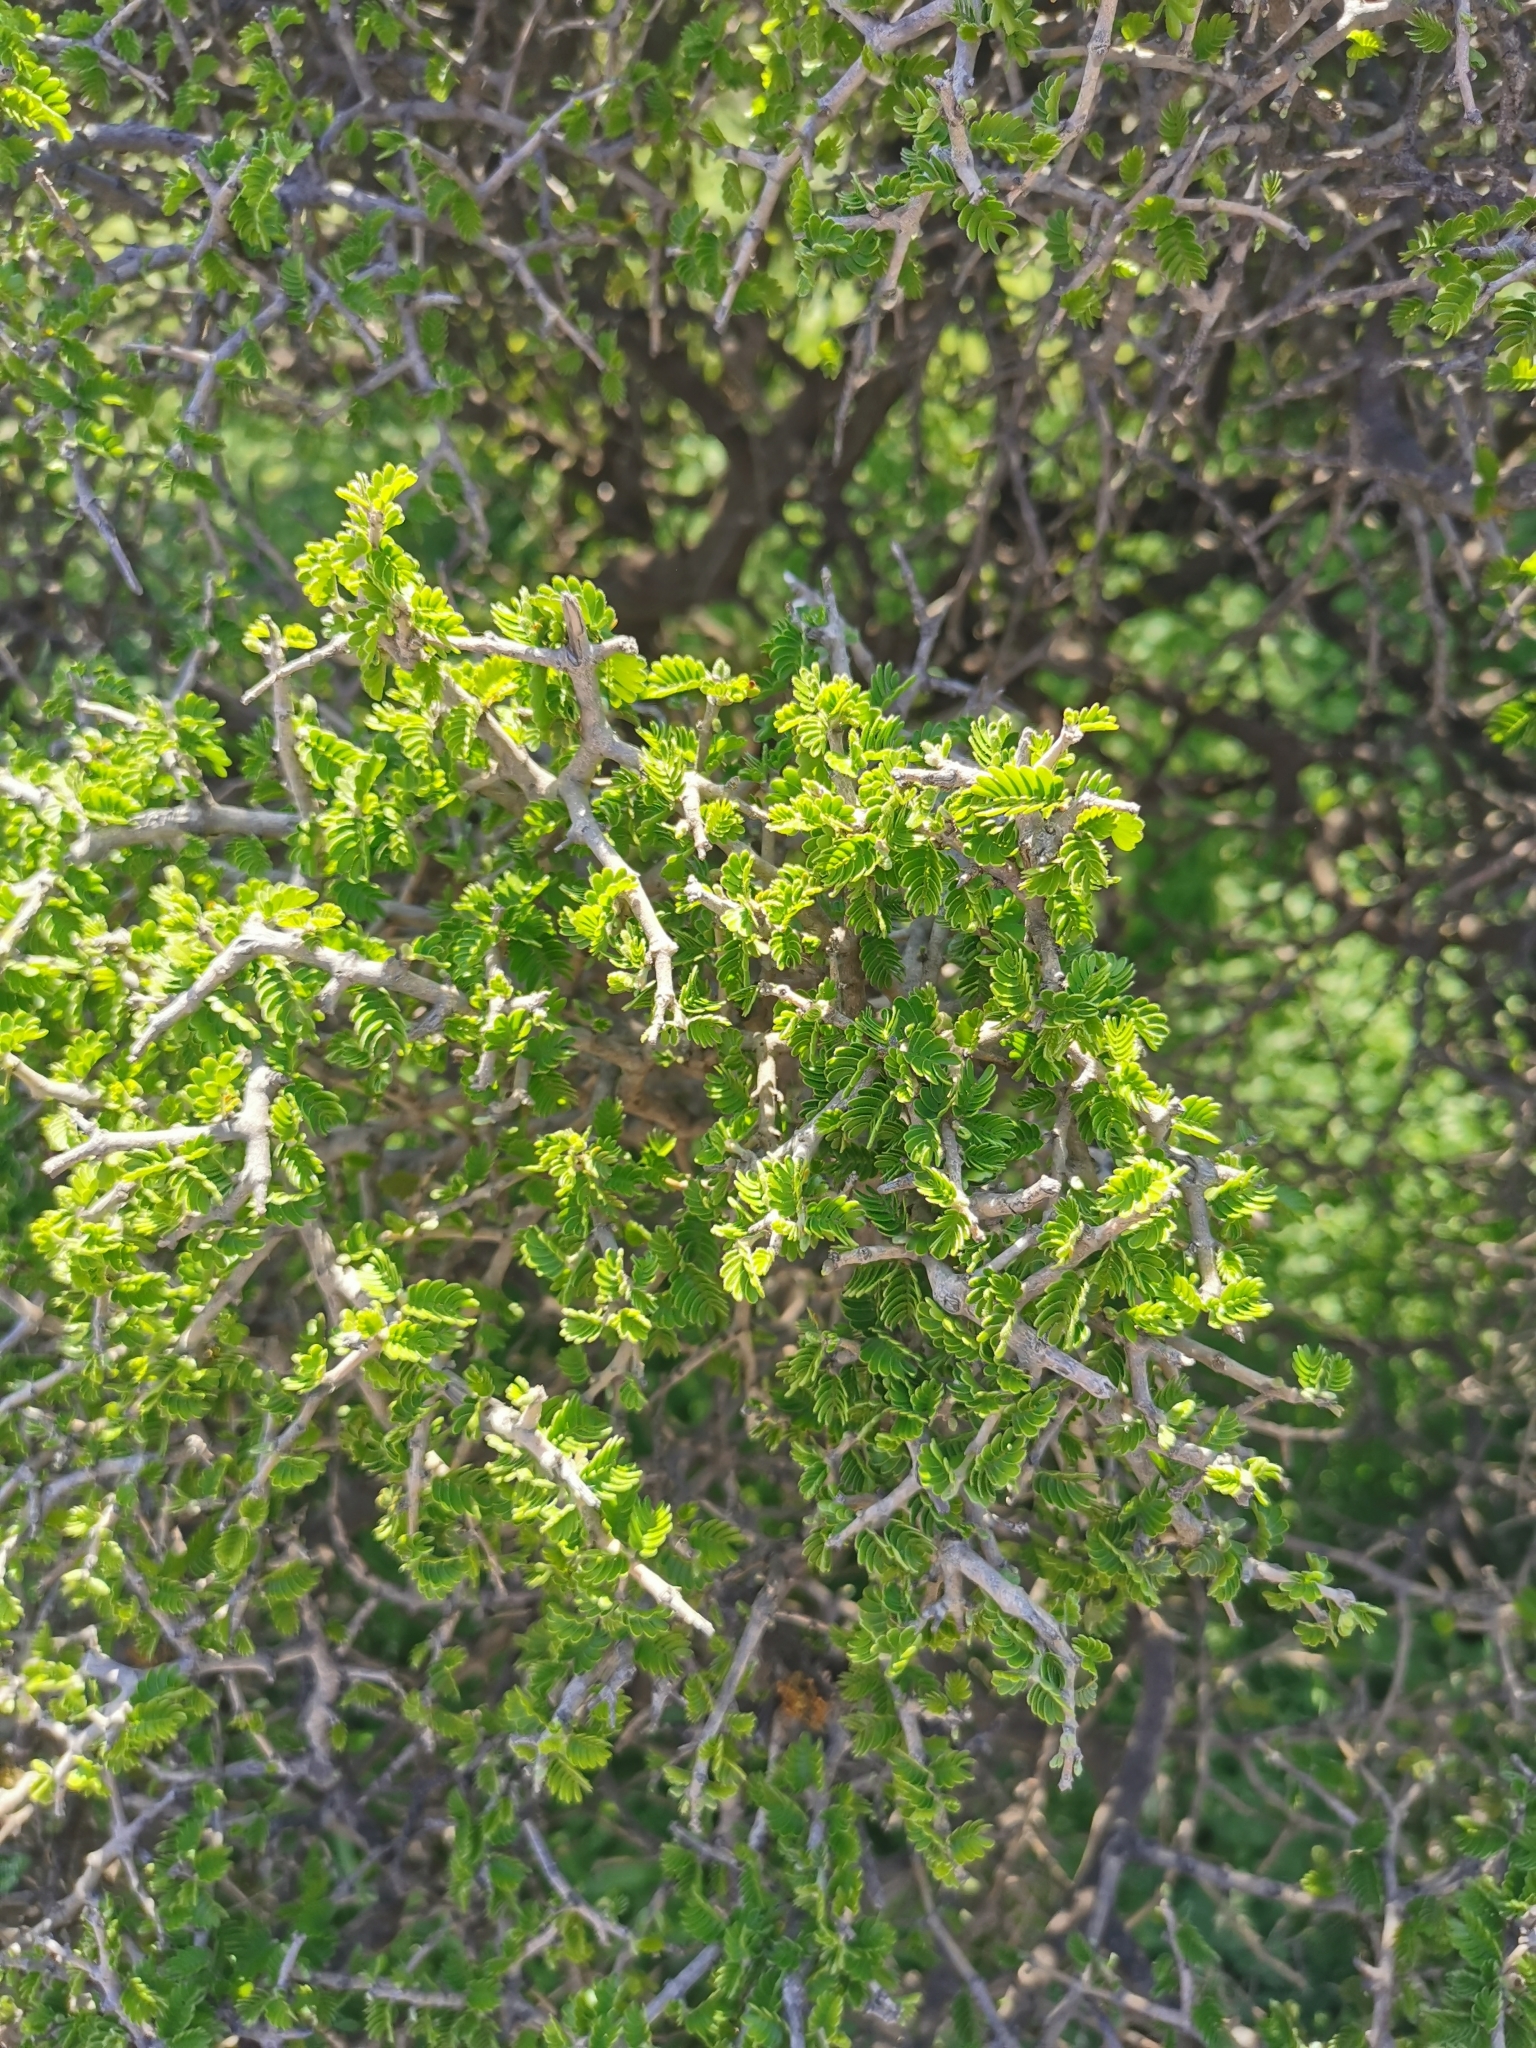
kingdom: Plantae
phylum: Tracheophyta
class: Magnoliopsida
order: Zygophyllales
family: Zygophyllaceae
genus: Porlieria
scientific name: Porlieria chilensis
